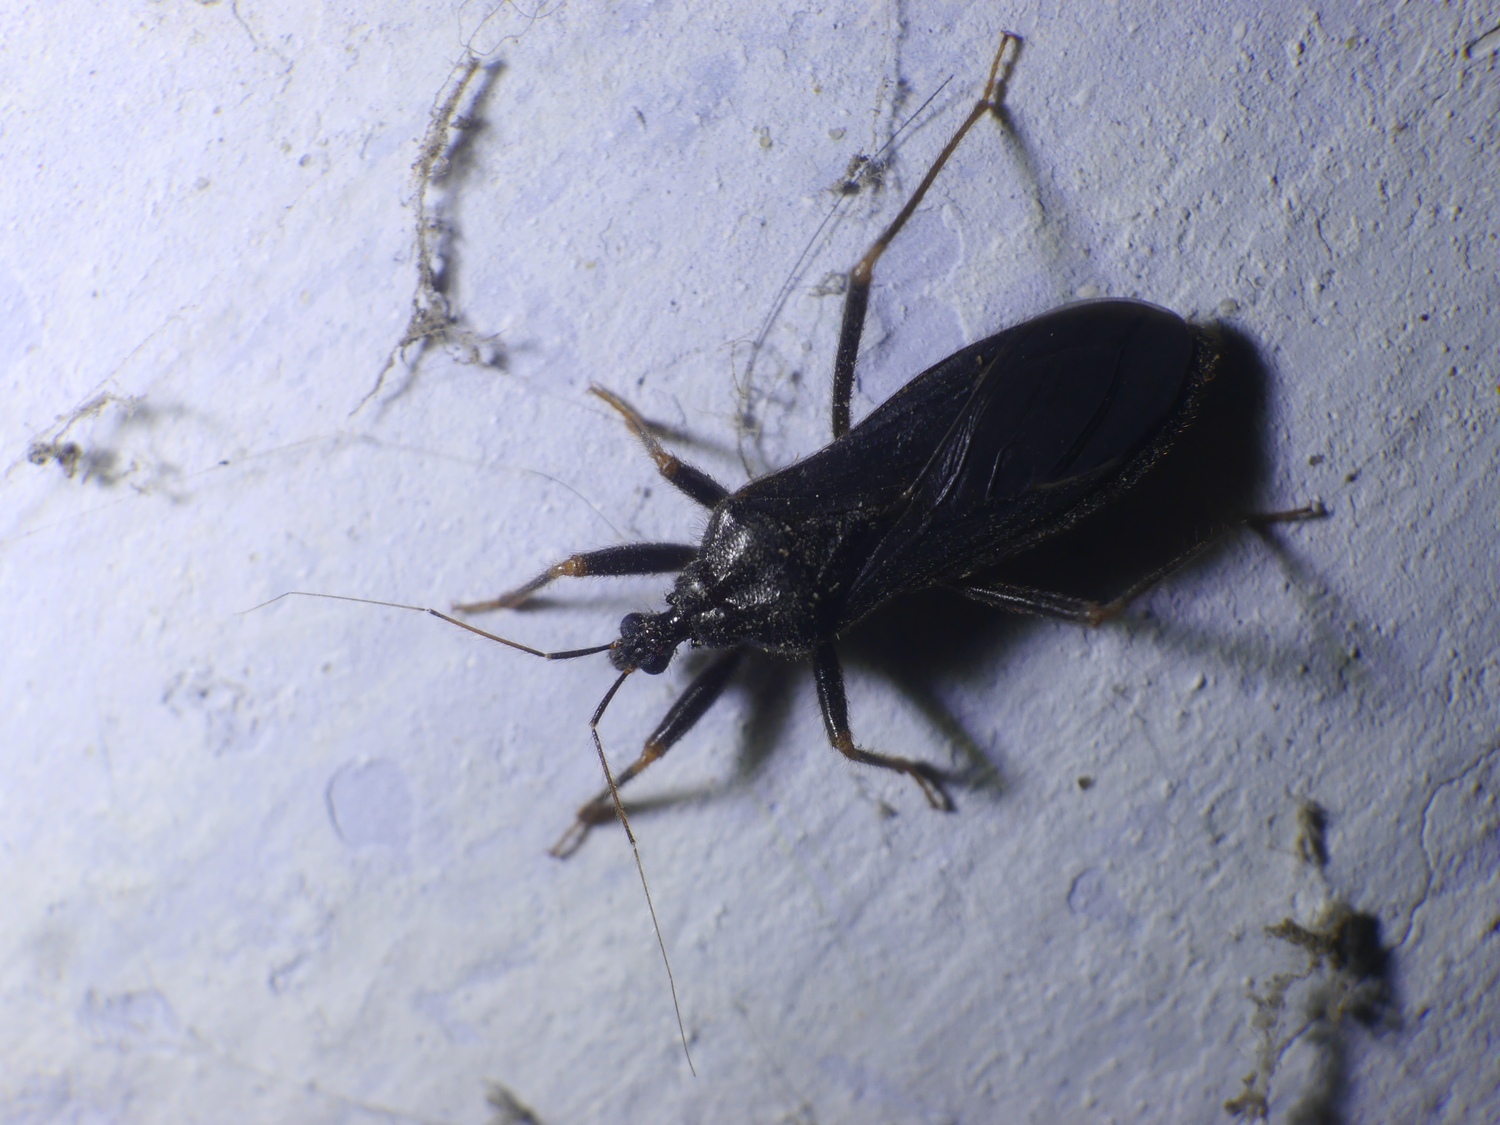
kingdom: Animalia
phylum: Arthropoda
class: Insecta
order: Hemiptera
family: Reduviidae
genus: Reduvius
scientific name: Reduvius personatus
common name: Masked hunter
